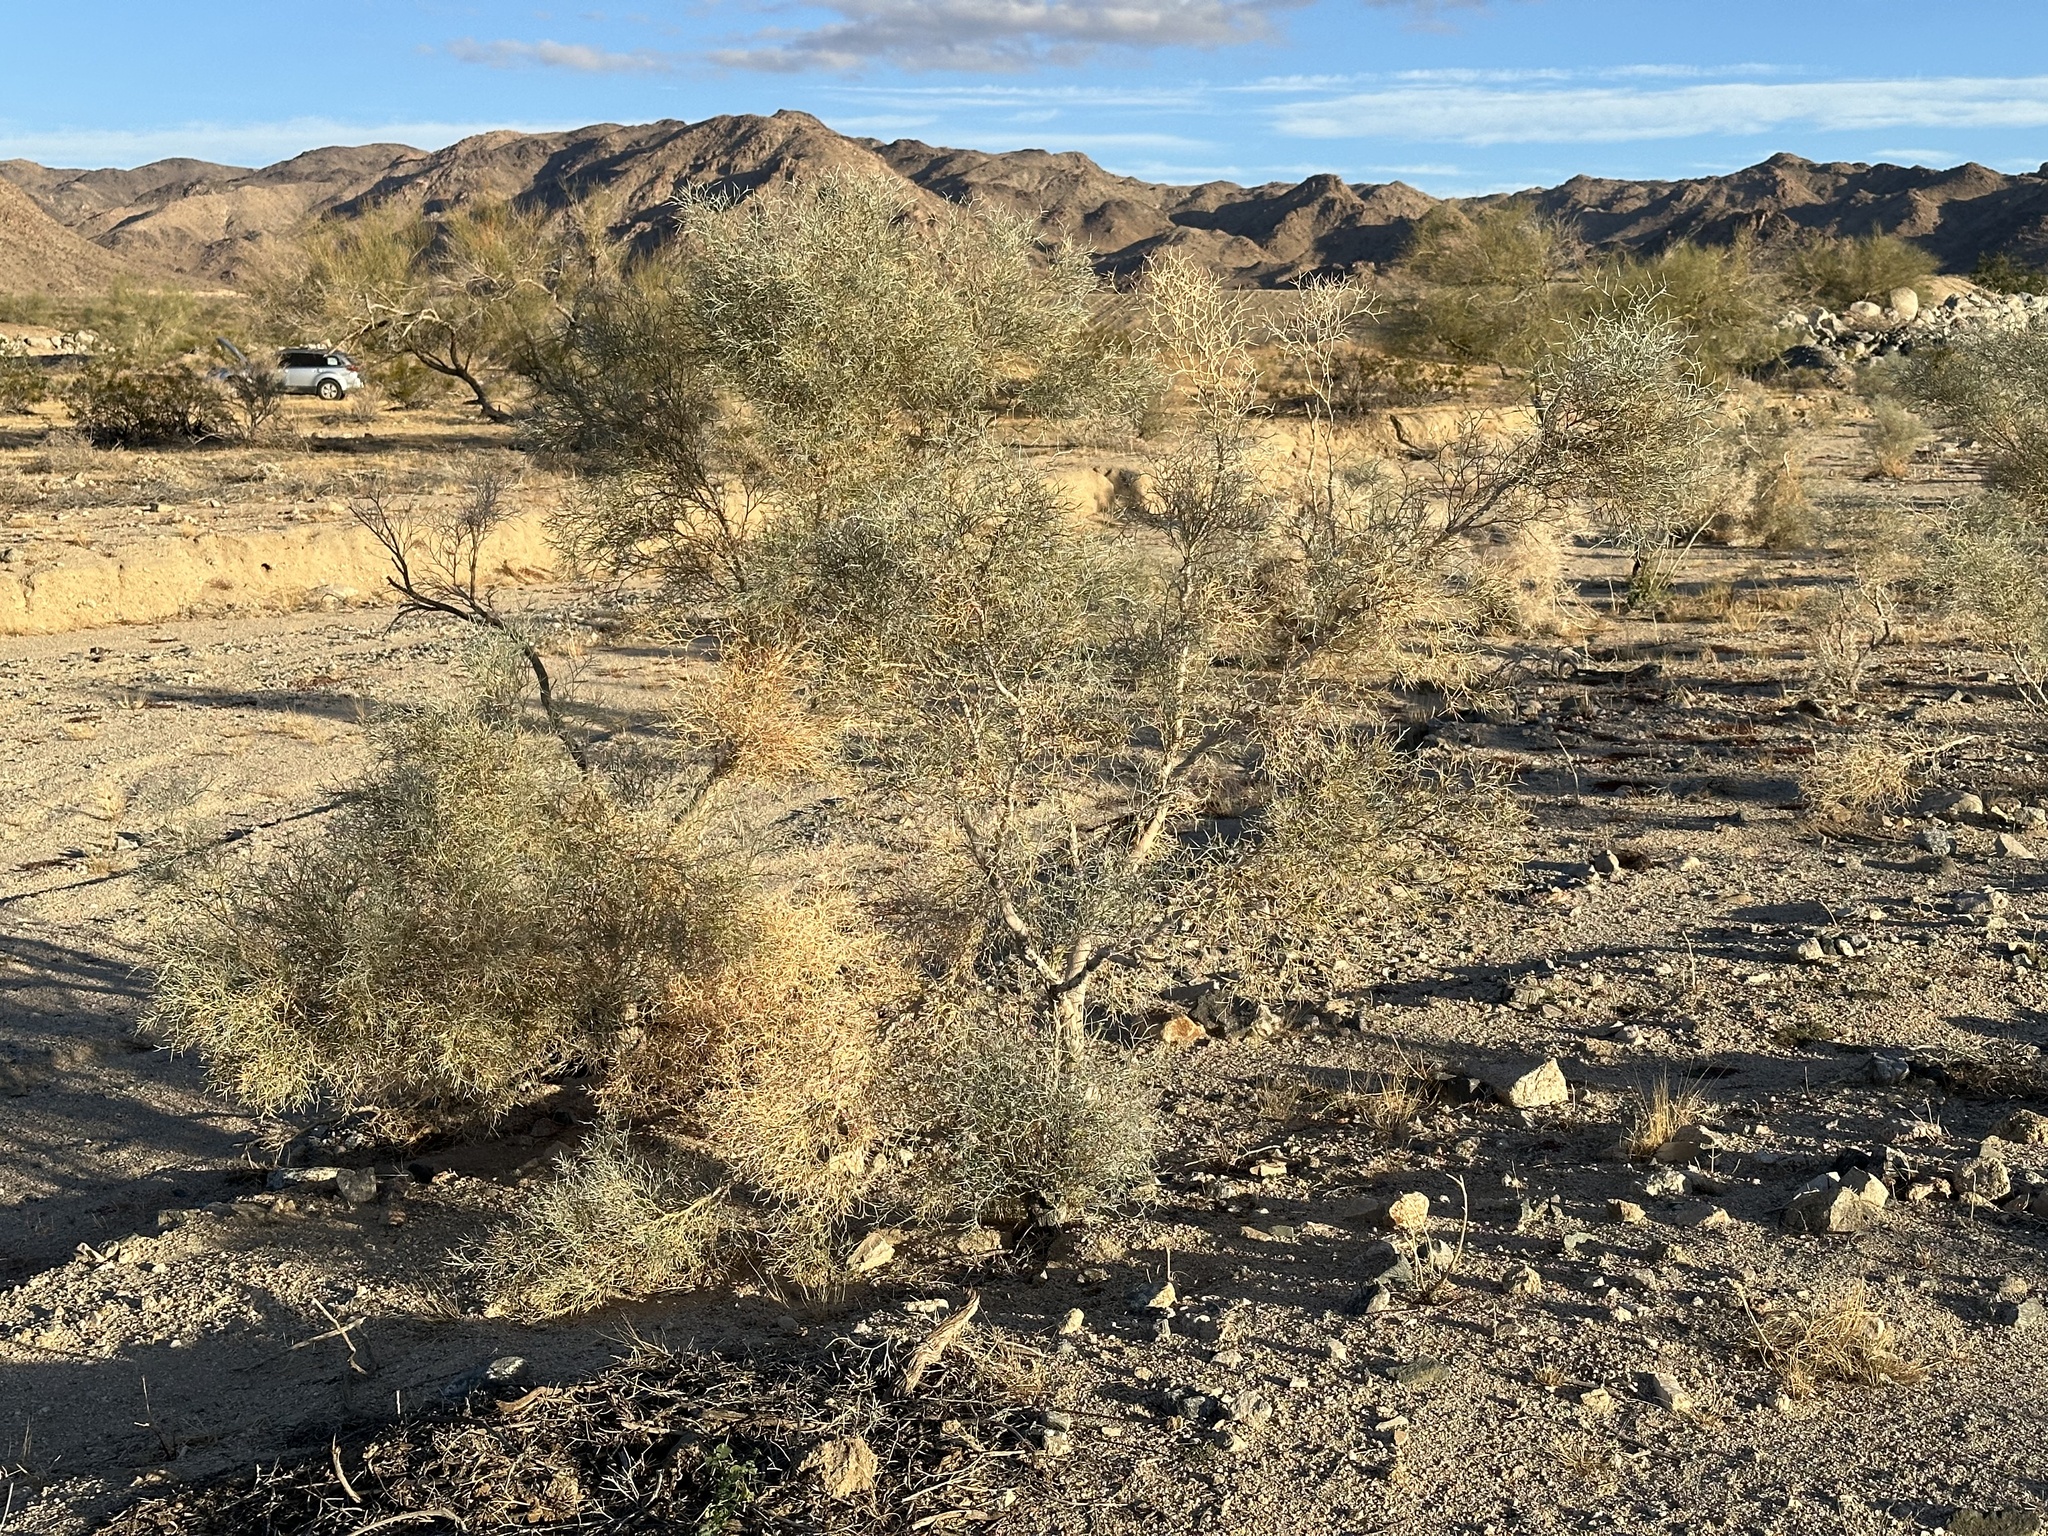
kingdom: Plantae
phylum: Tracheophyta
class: Magnoliopsida
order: Fabales
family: Fabaceae
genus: Psorothamnus
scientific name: Psorothamnus spinosus
